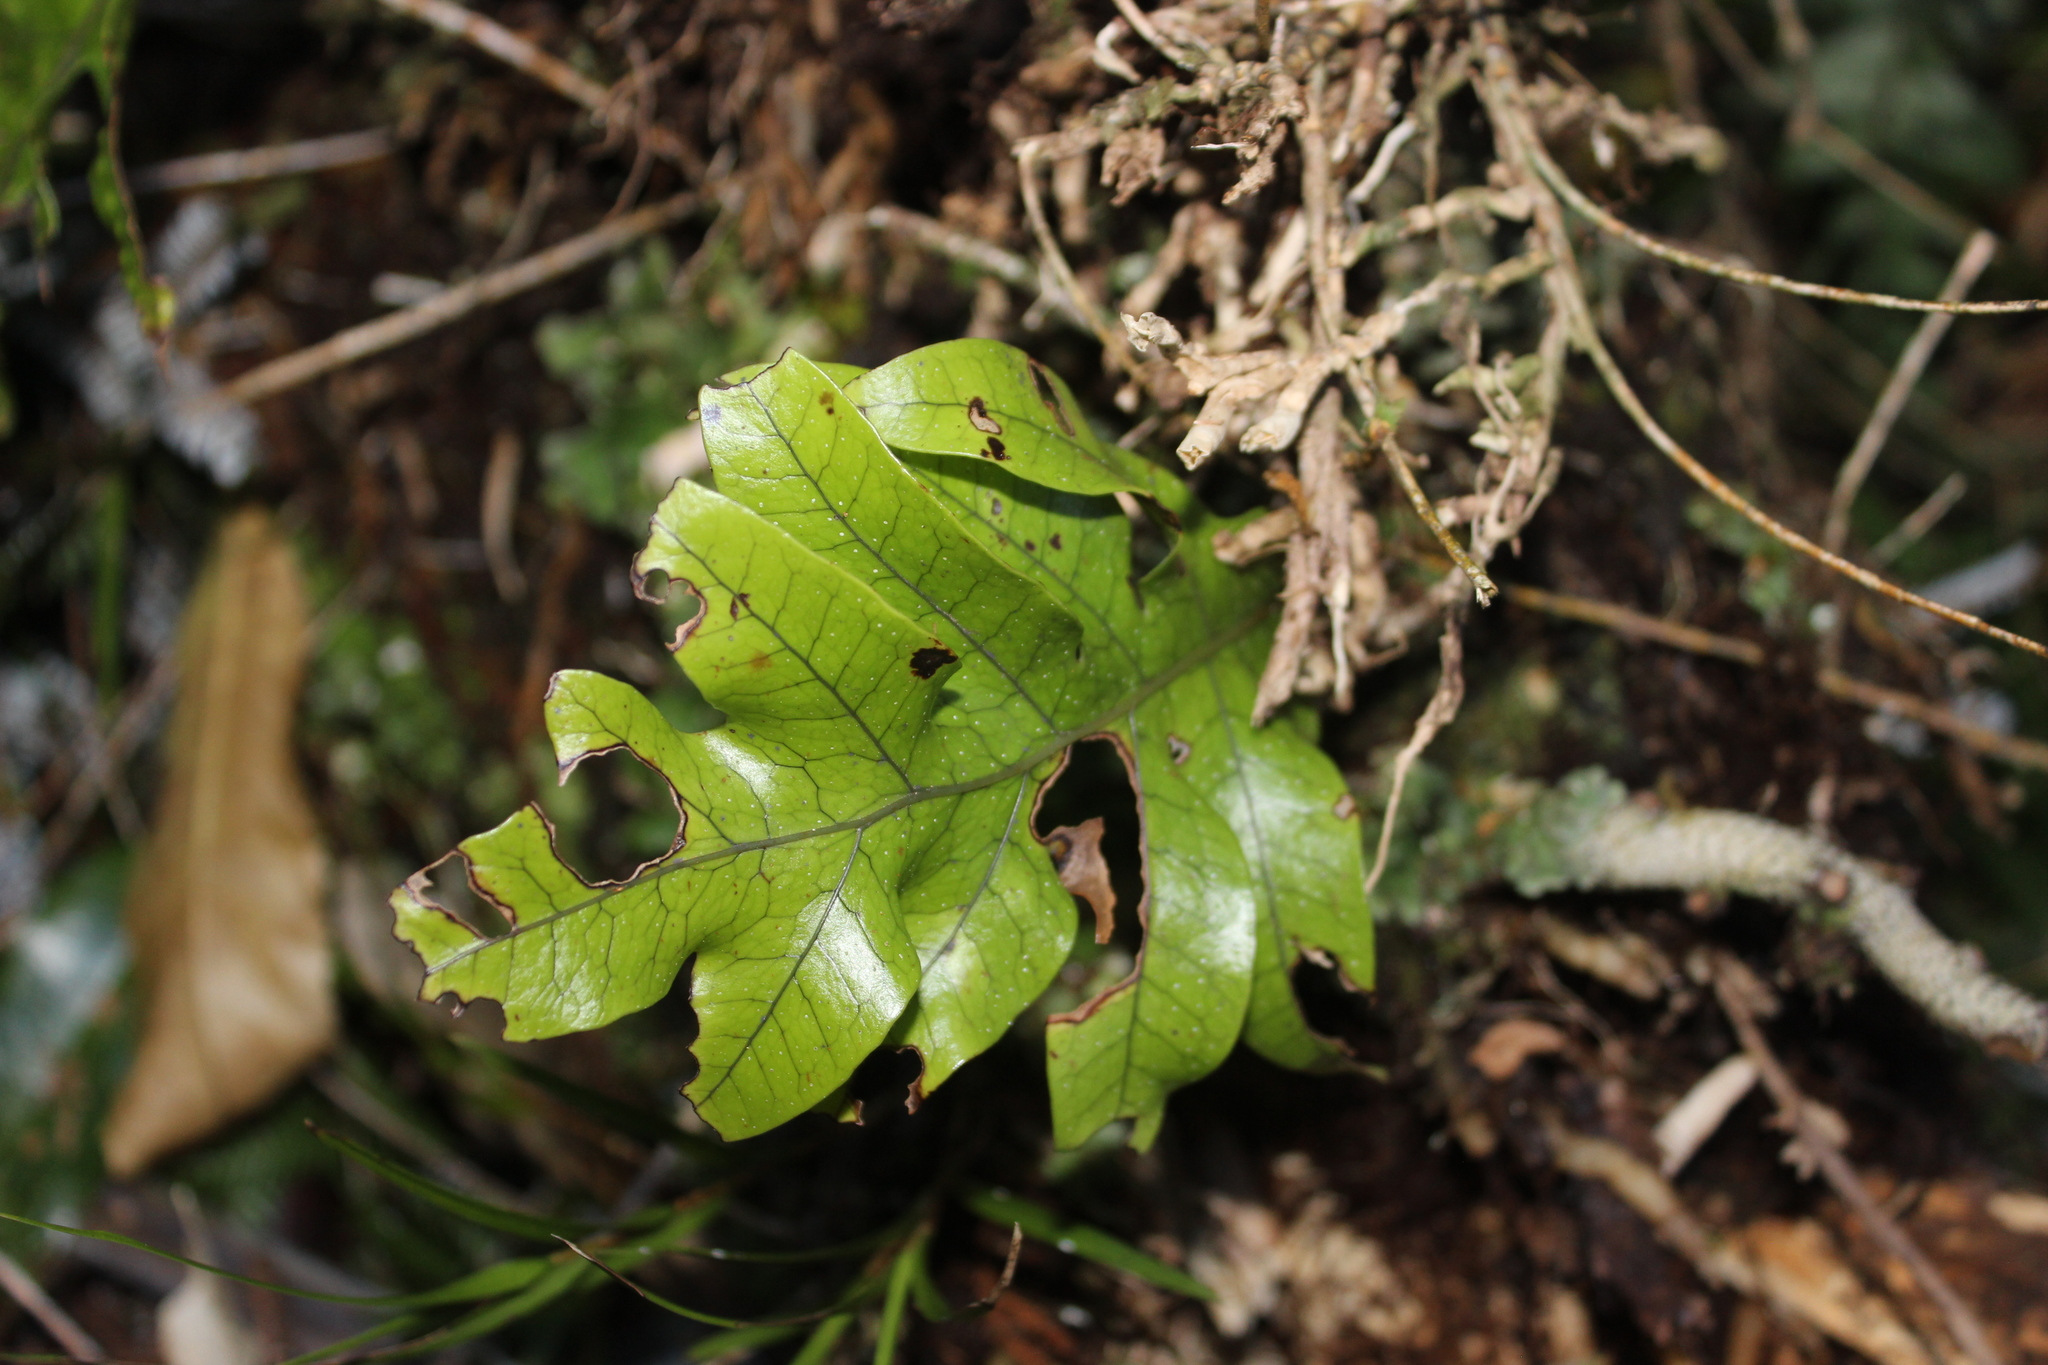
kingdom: Plantae
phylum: Tracheophyta
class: Polypodiopsida
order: Polypodiales
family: Polypodiaceae
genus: Lecanopteris
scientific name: Lecanopteris pustulata
